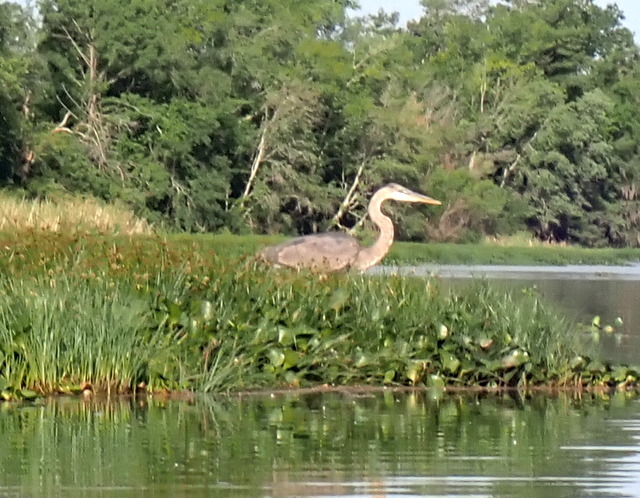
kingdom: Animalia
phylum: Chordata
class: Aves
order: Pelecaniformes
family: Ardeidae
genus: Ardea
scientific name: Ardea herodias
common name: Great blue heron
